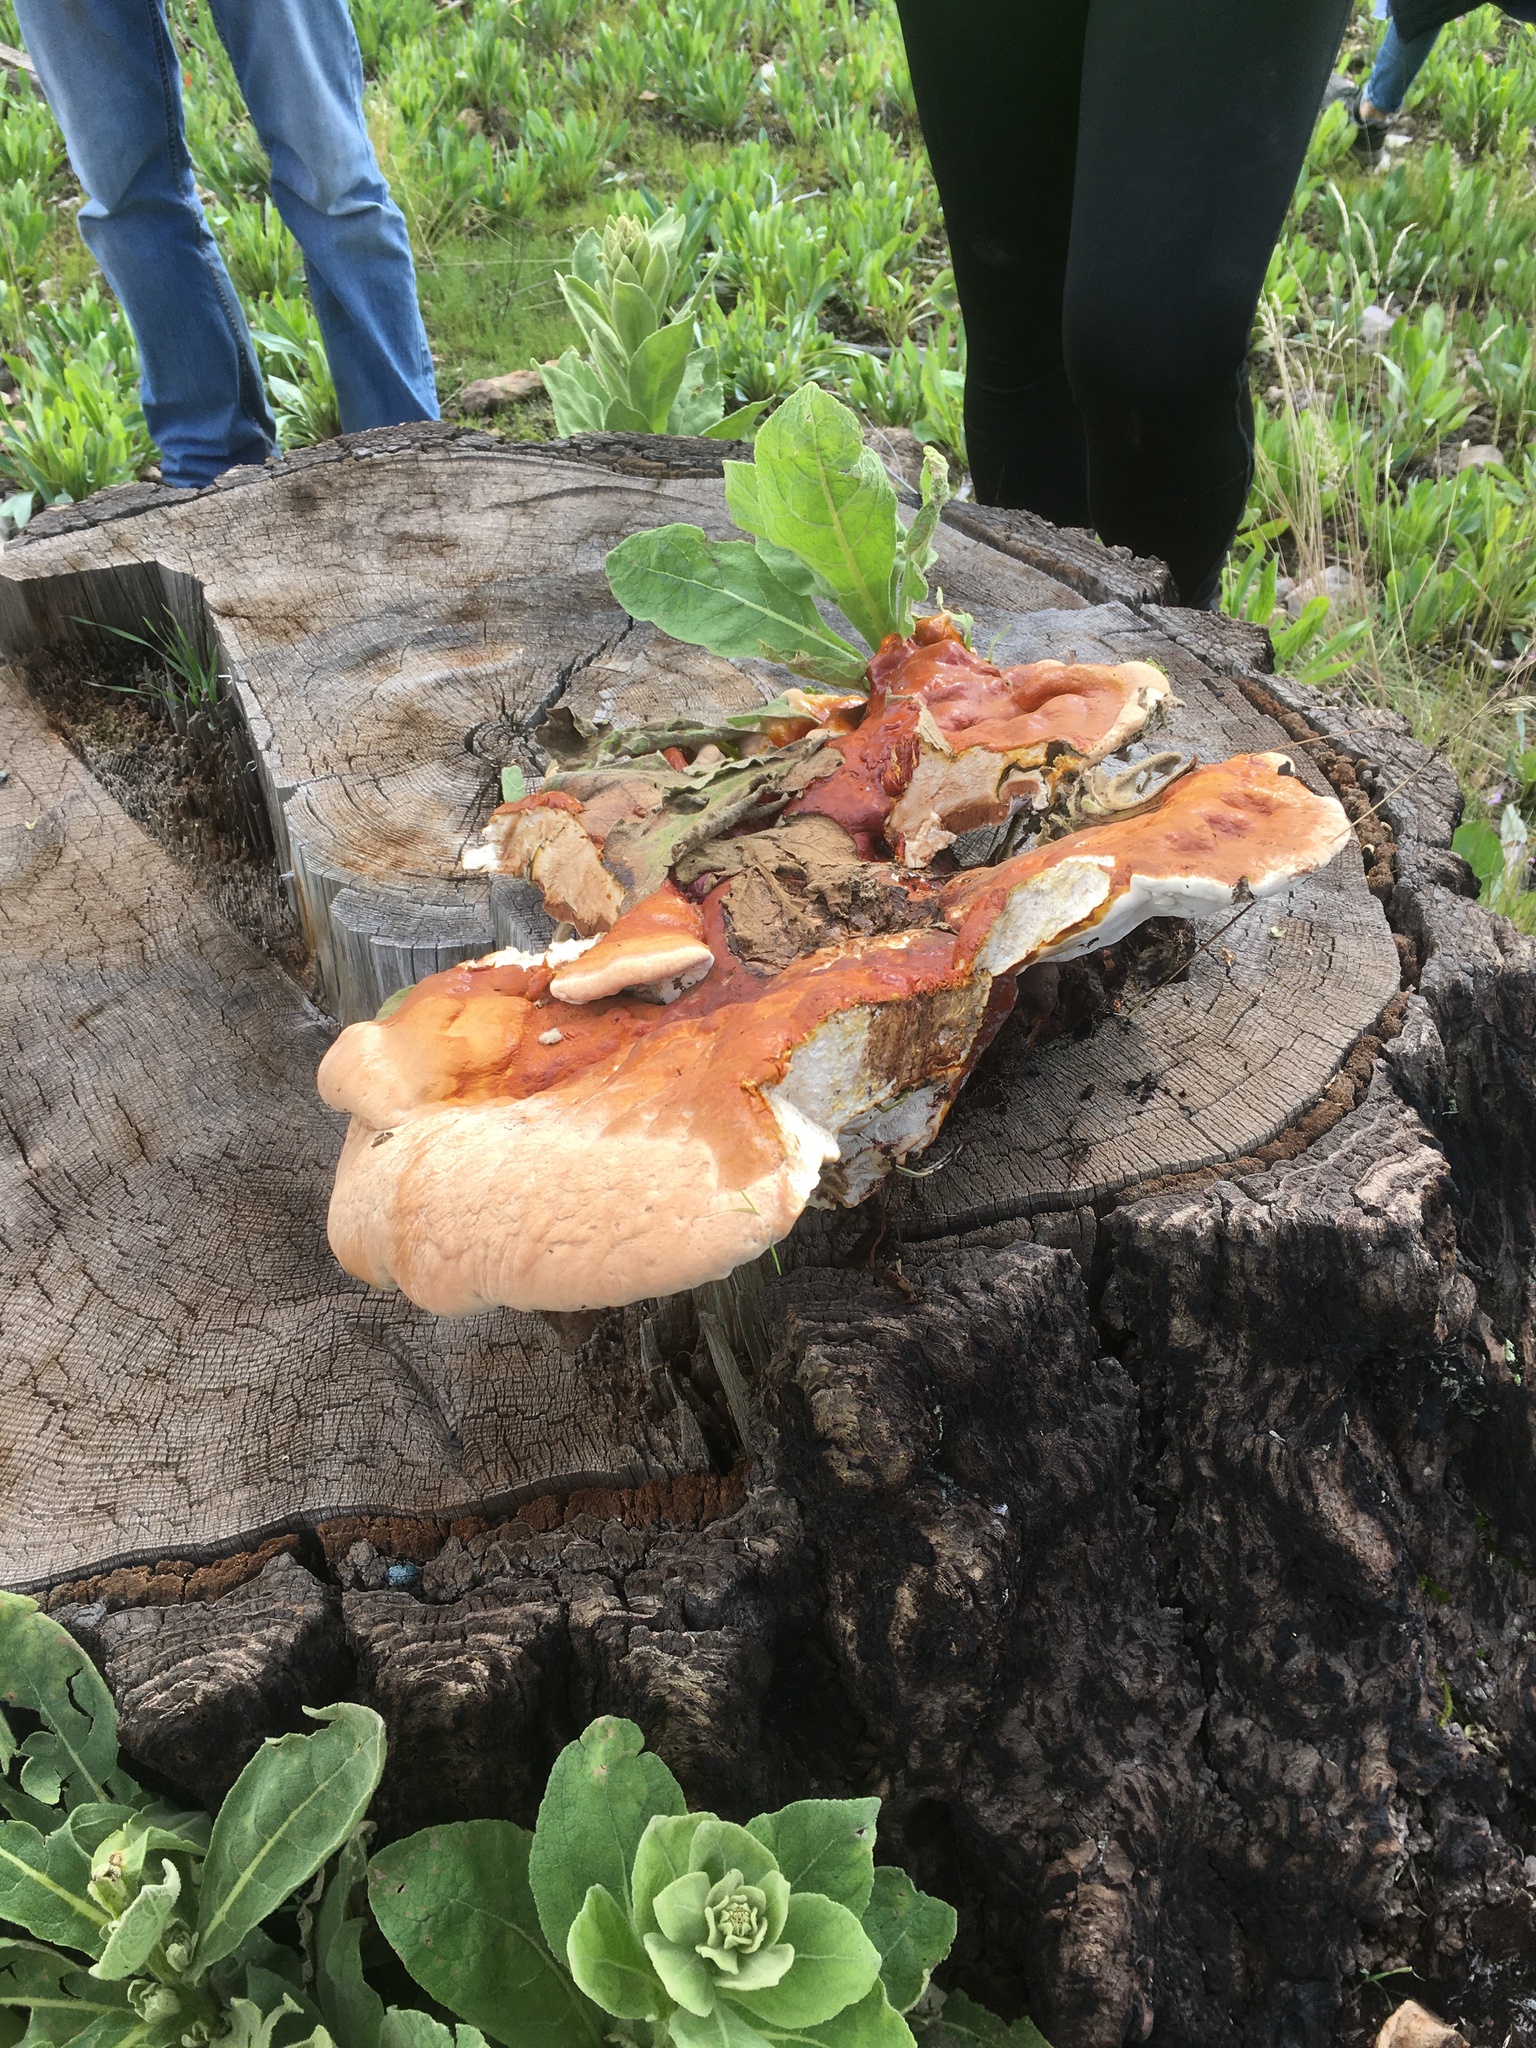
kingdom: Fungi
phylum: Basidiomycota
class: Agaricomycetes
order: Polyporales
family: Polyporaceae
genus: Ganoderma
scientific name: Ganoderma tsugae
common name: Hemlock varnish shelf
